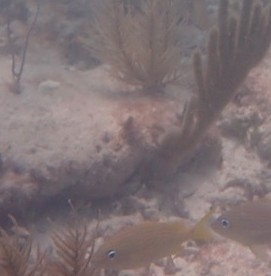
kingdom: Animalia
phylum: Chordata
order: Perciformes
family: Haemulidae
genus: Haemulon
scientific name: Haemulon flavolineatum
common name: French grunt
